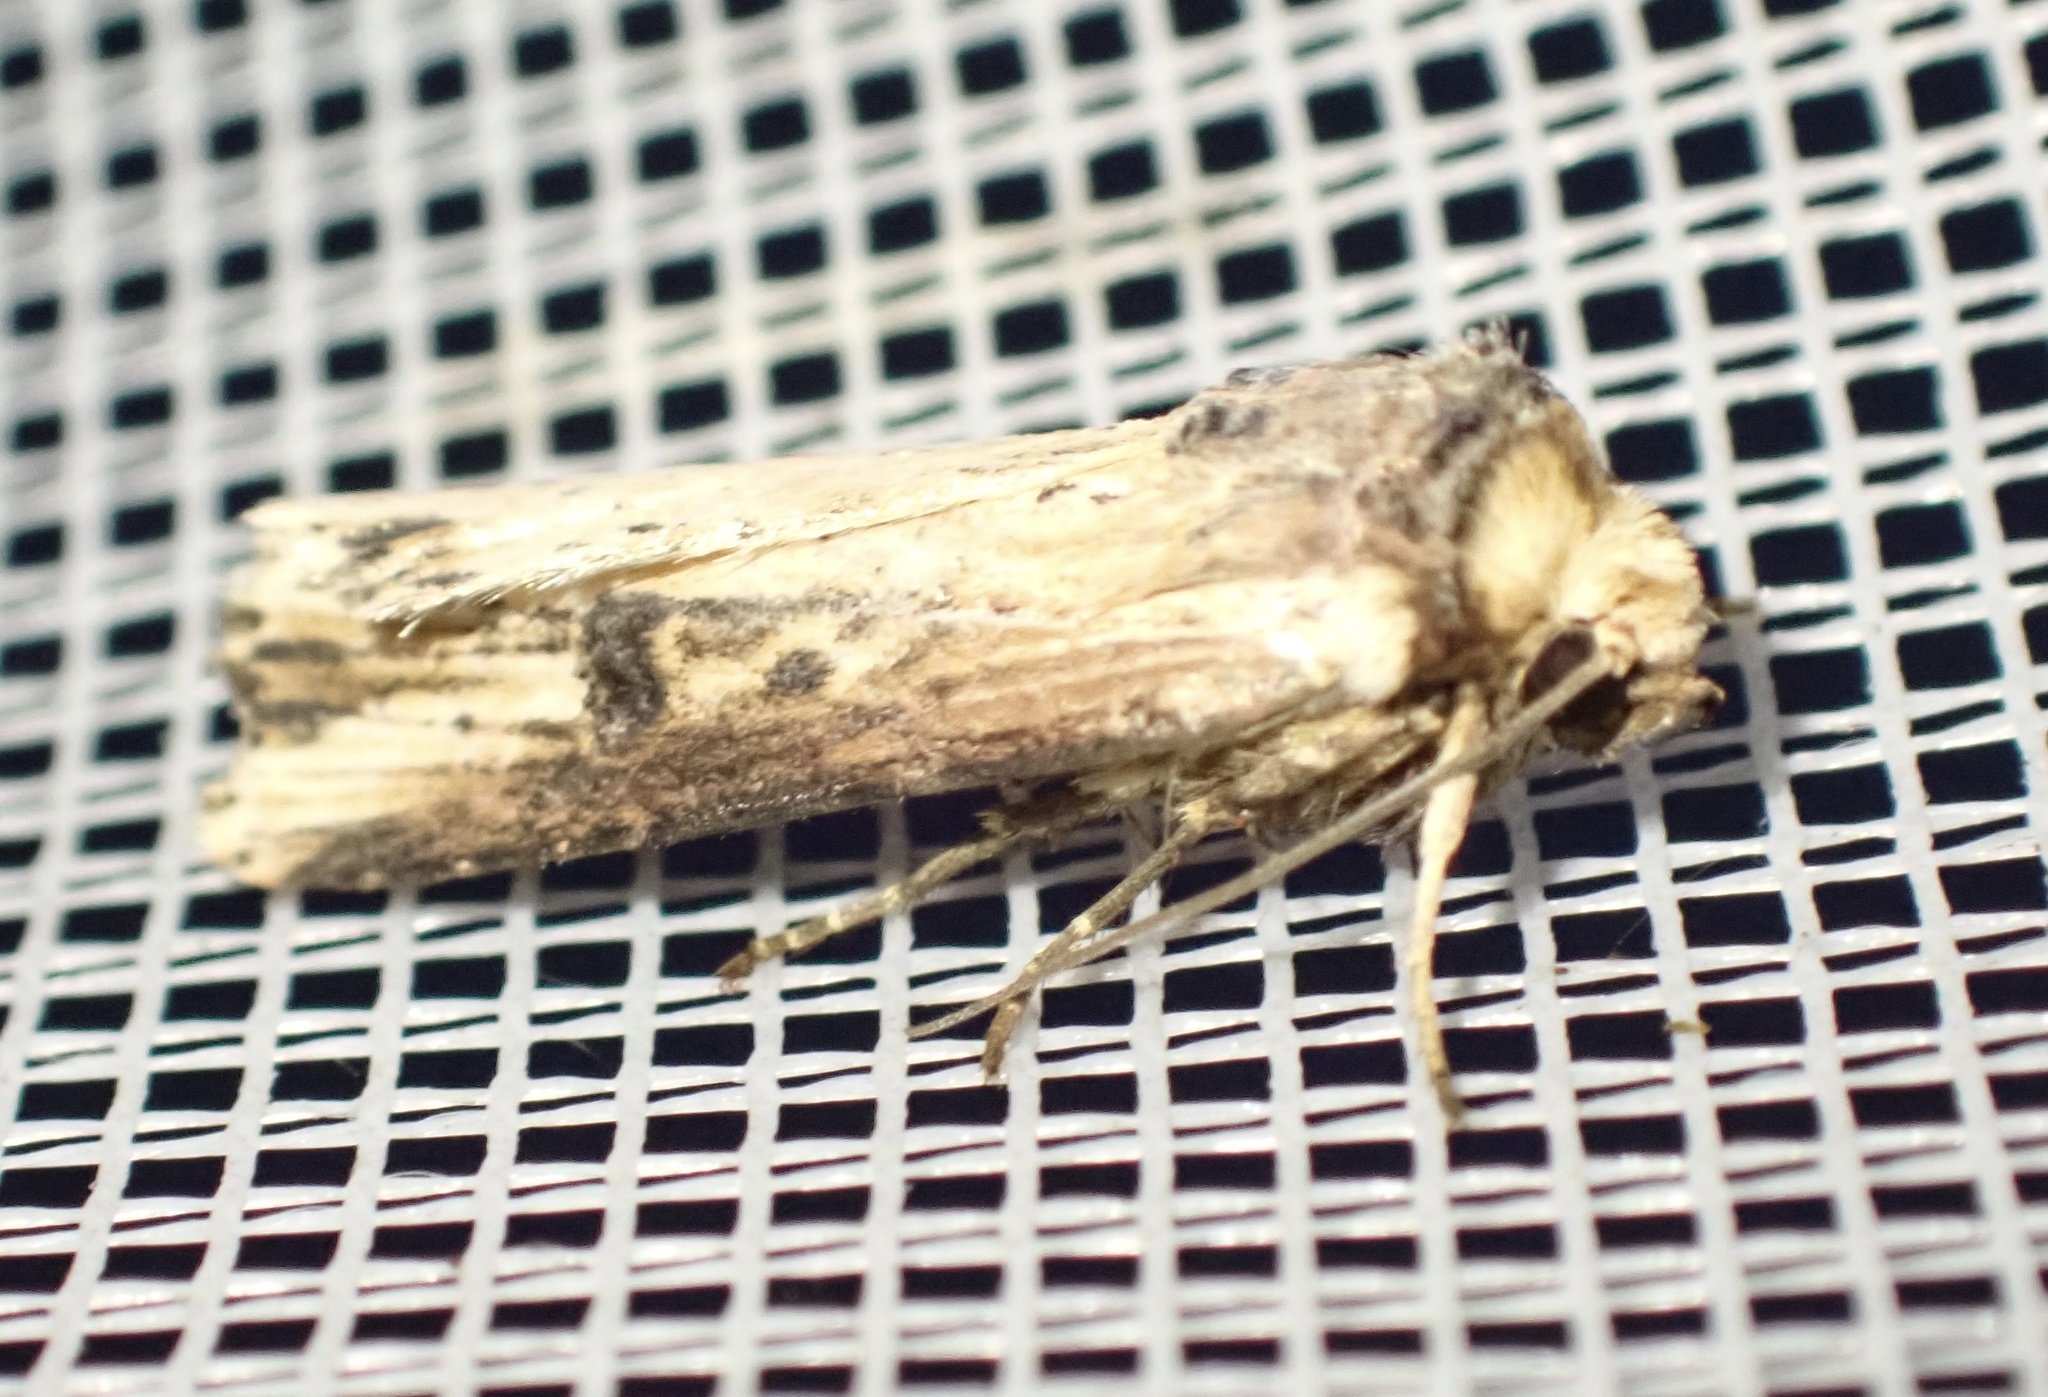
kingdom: Animalia
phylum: Arthropoda
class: Insecta
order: Lepidoptera
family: Noctuidae
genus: Axylia
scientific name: Axylia putris
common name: Flame
